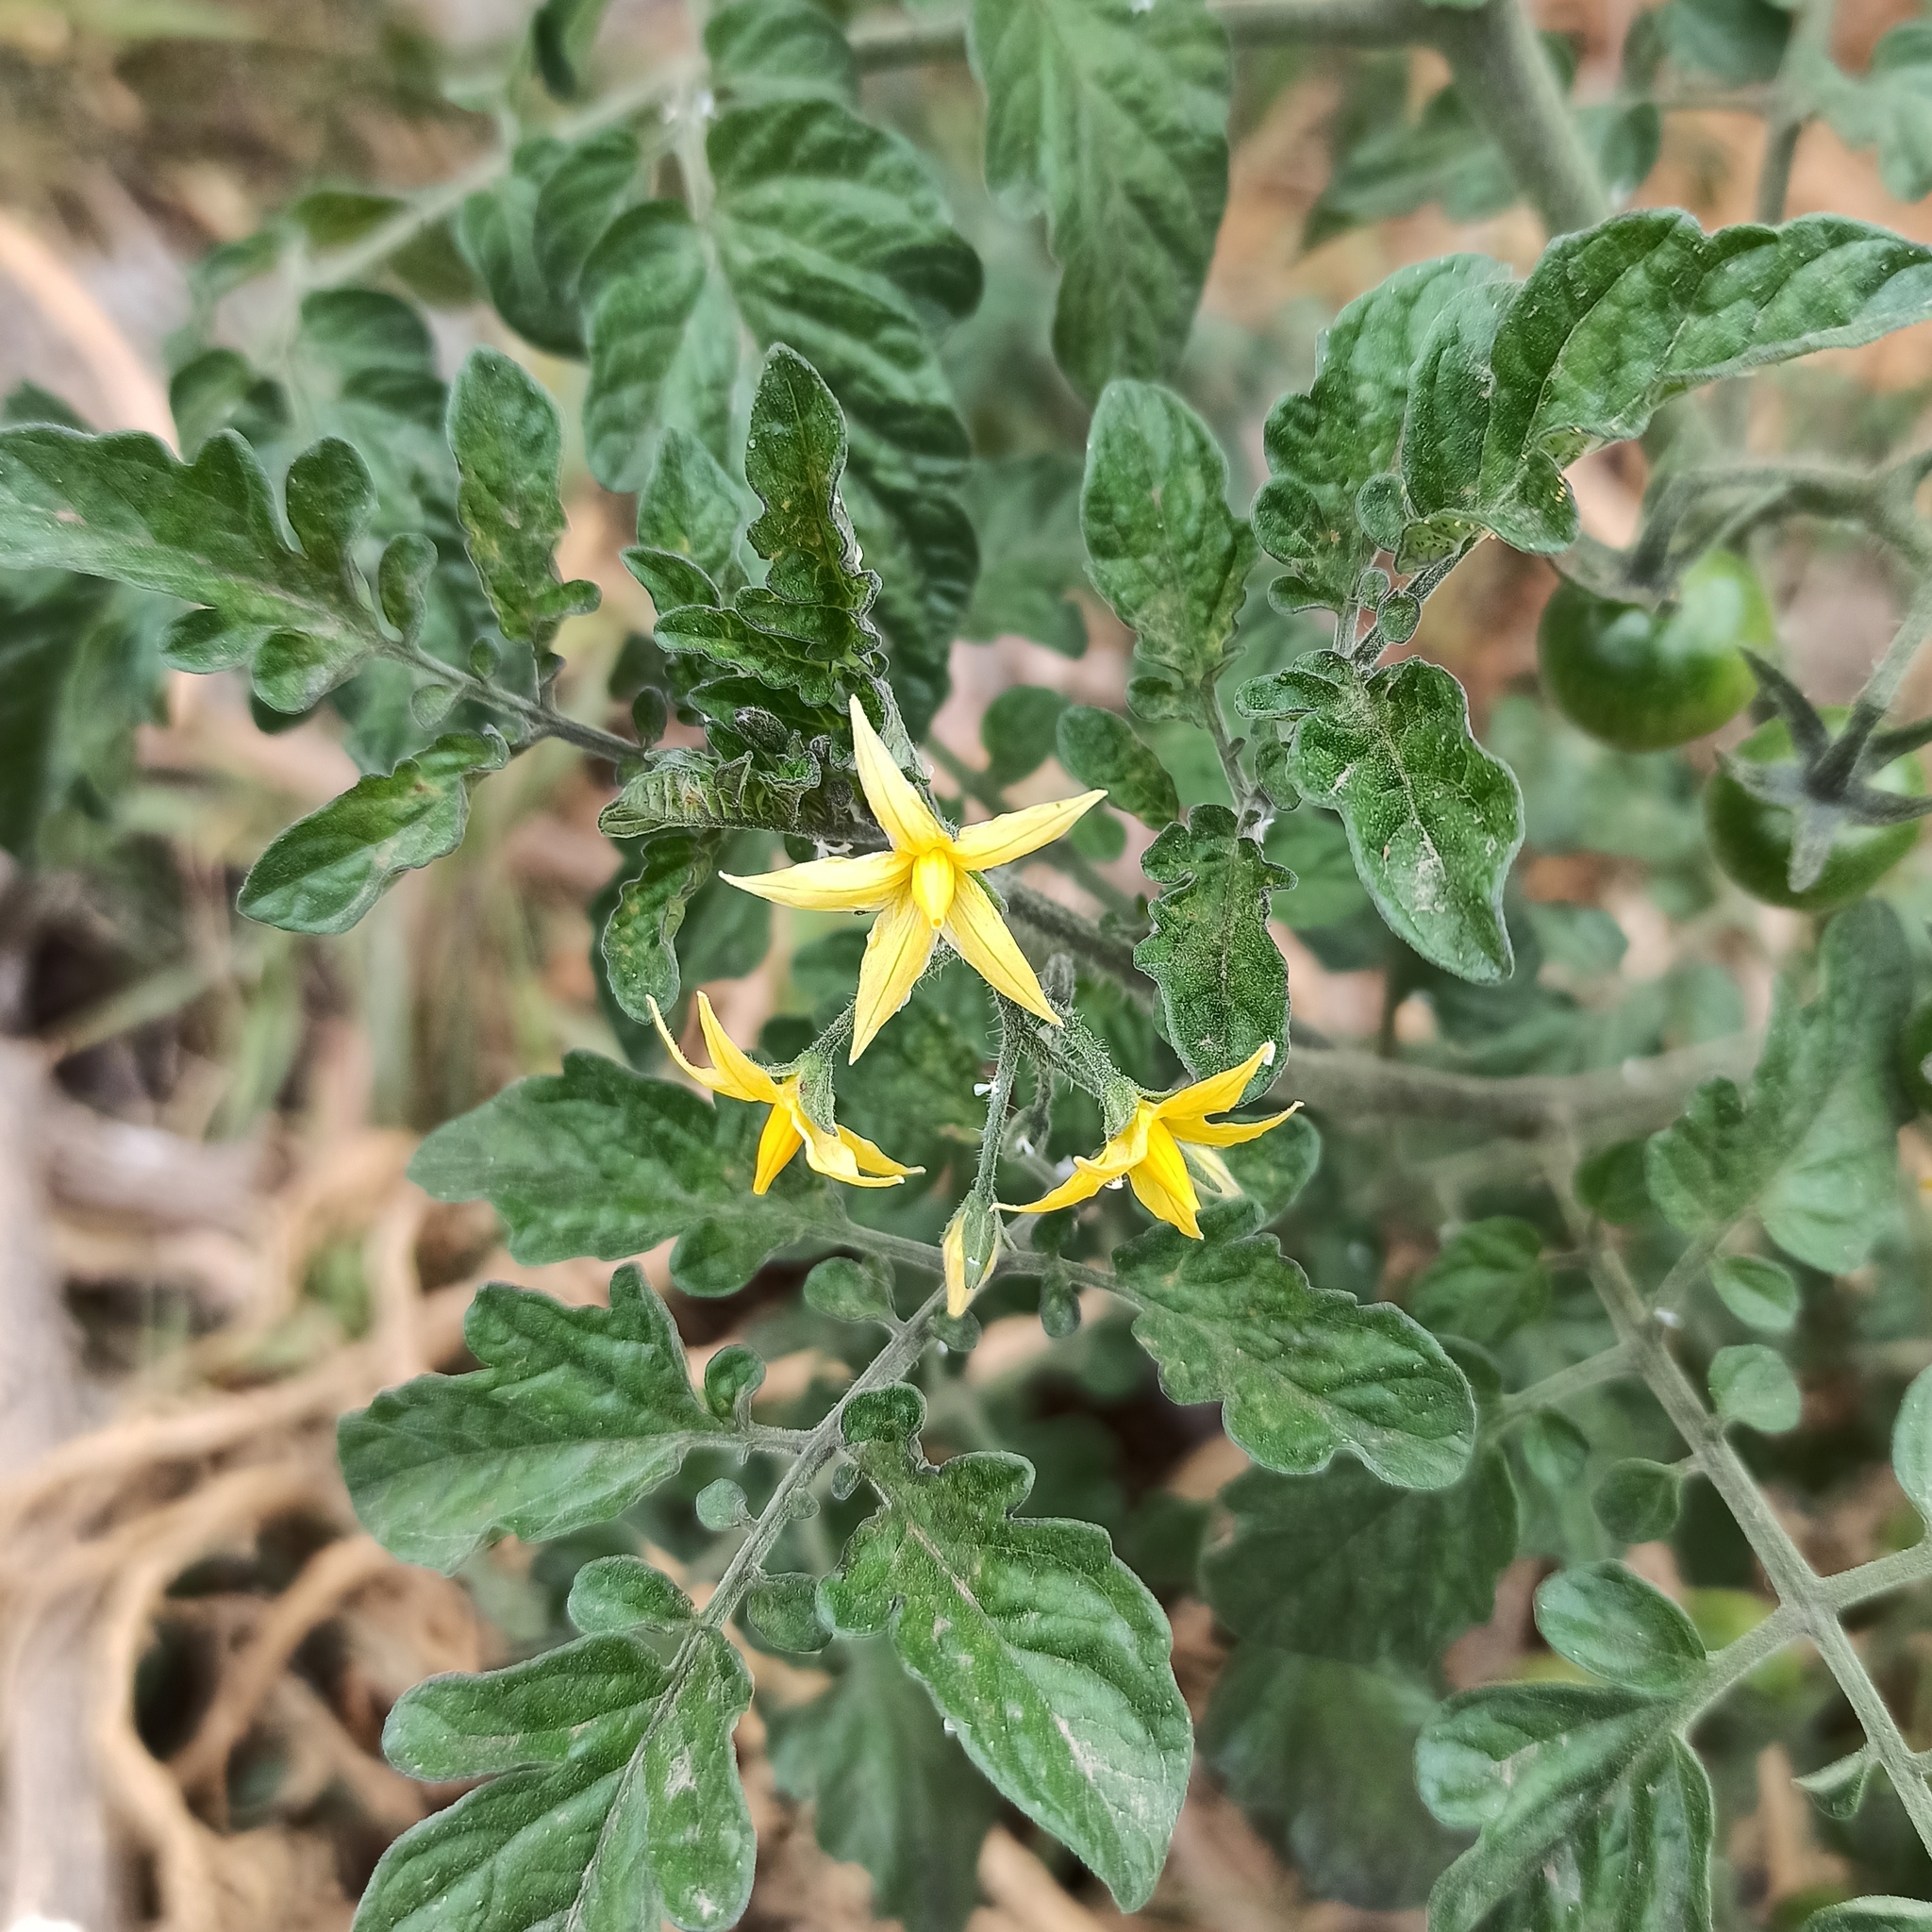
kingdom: Plantae
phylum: Tracheophyta
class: Magnoliopsida
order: Solanales
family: Solanaceae
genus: Solanum
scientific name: Solanum lycopersicum
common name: Garden tomato
